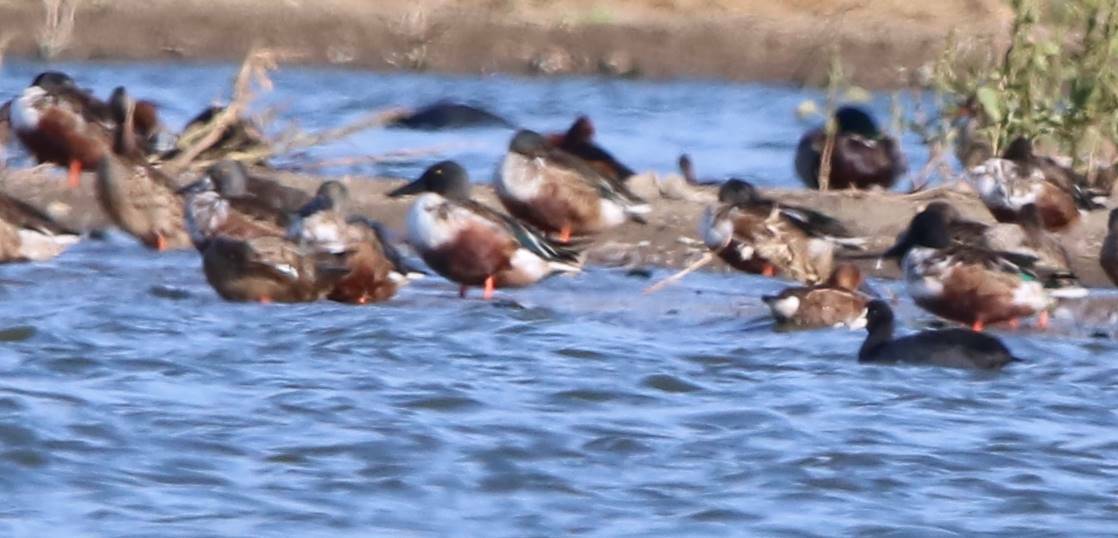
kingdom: Animalia
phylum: Chordata
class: Aves
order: Anseriformes
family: Anatidae
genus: Spatula
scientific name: Spatula clypeata
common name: Northern shoveler
